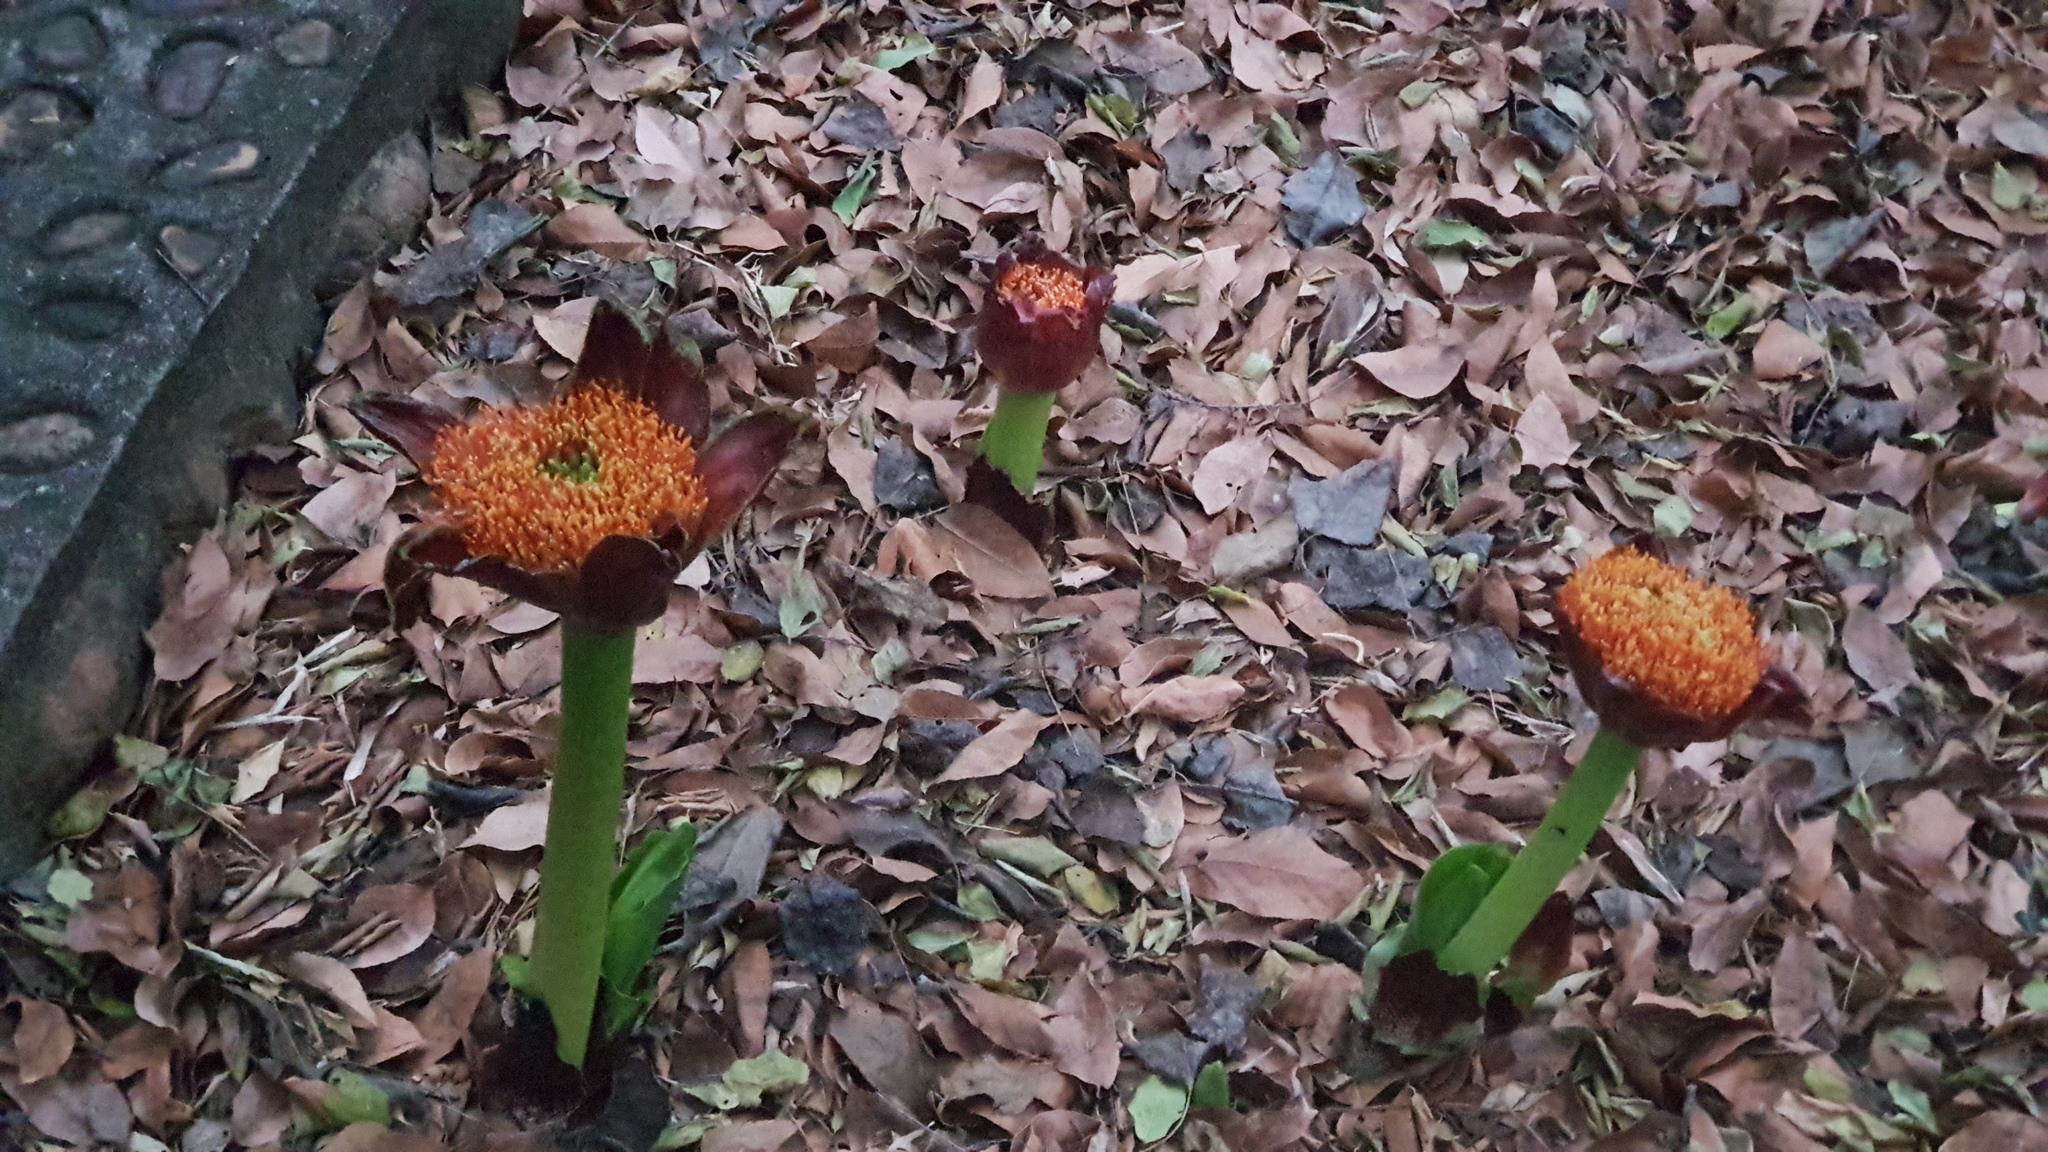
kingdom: Plantae
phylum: Tracheophyta
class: Liliopsida
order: Asparagales
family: Amaryllidaceae
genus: Scadoxus
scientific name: Scadoxus puniceus
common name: Royal-paintbrush
